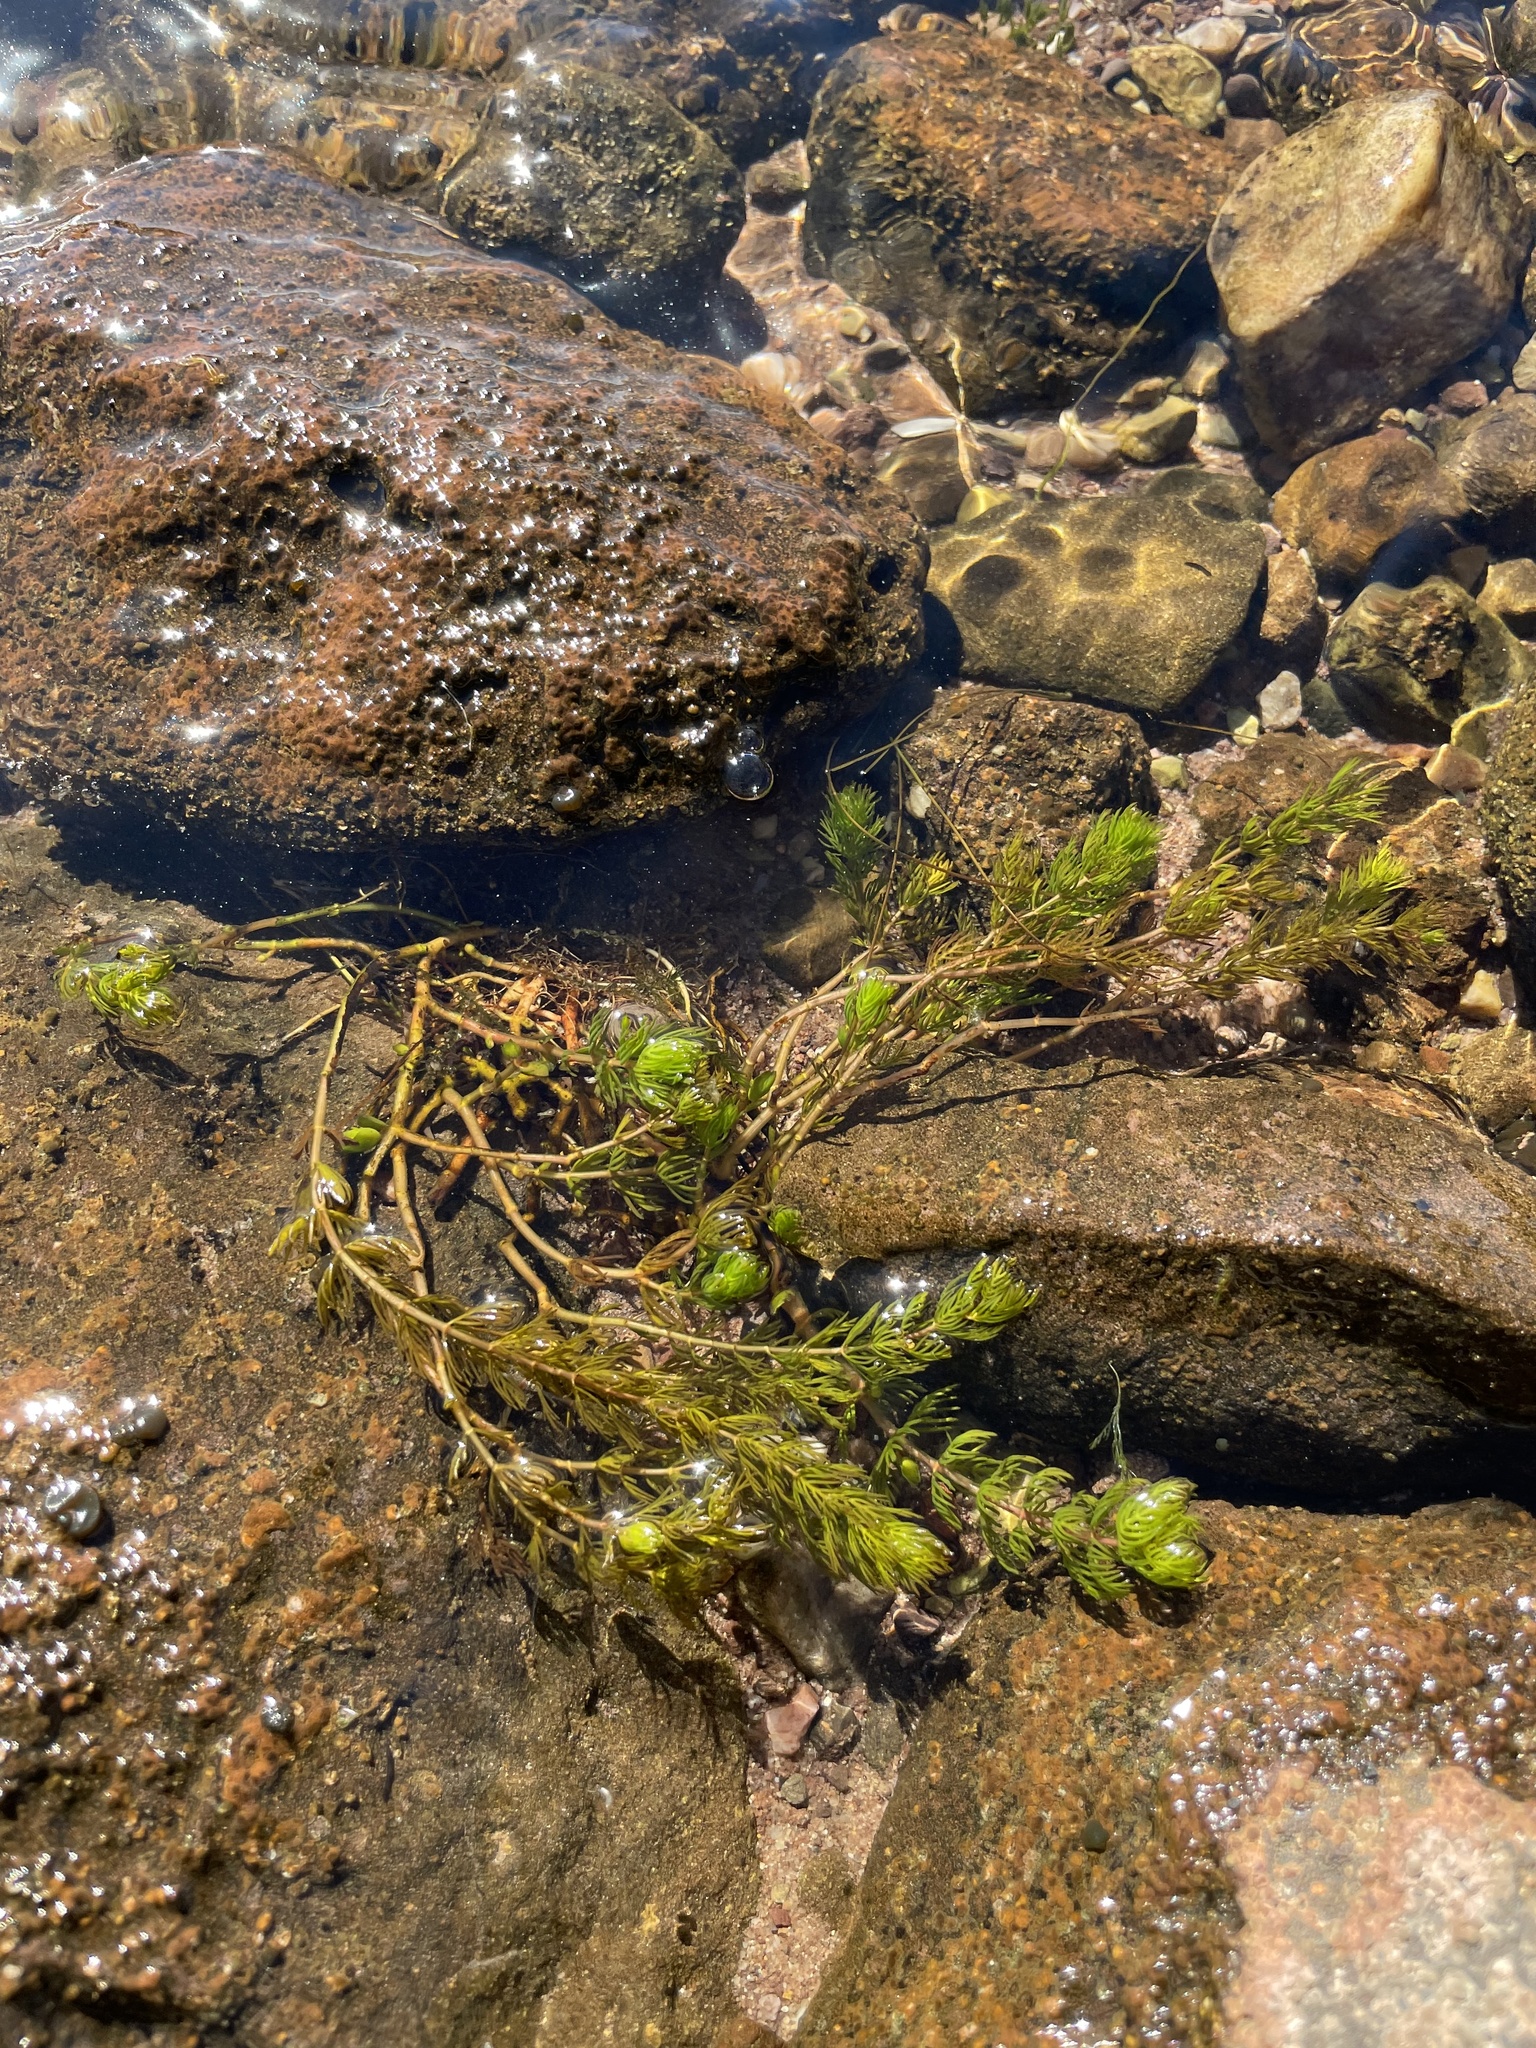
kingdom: Plantae
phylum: Tracheophyta
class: Magnoliopsida
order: Saxifragales
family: Haloragaceae
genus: Myriophyllum
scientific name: Myriophyllum quitense
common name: Andean water milfoil
